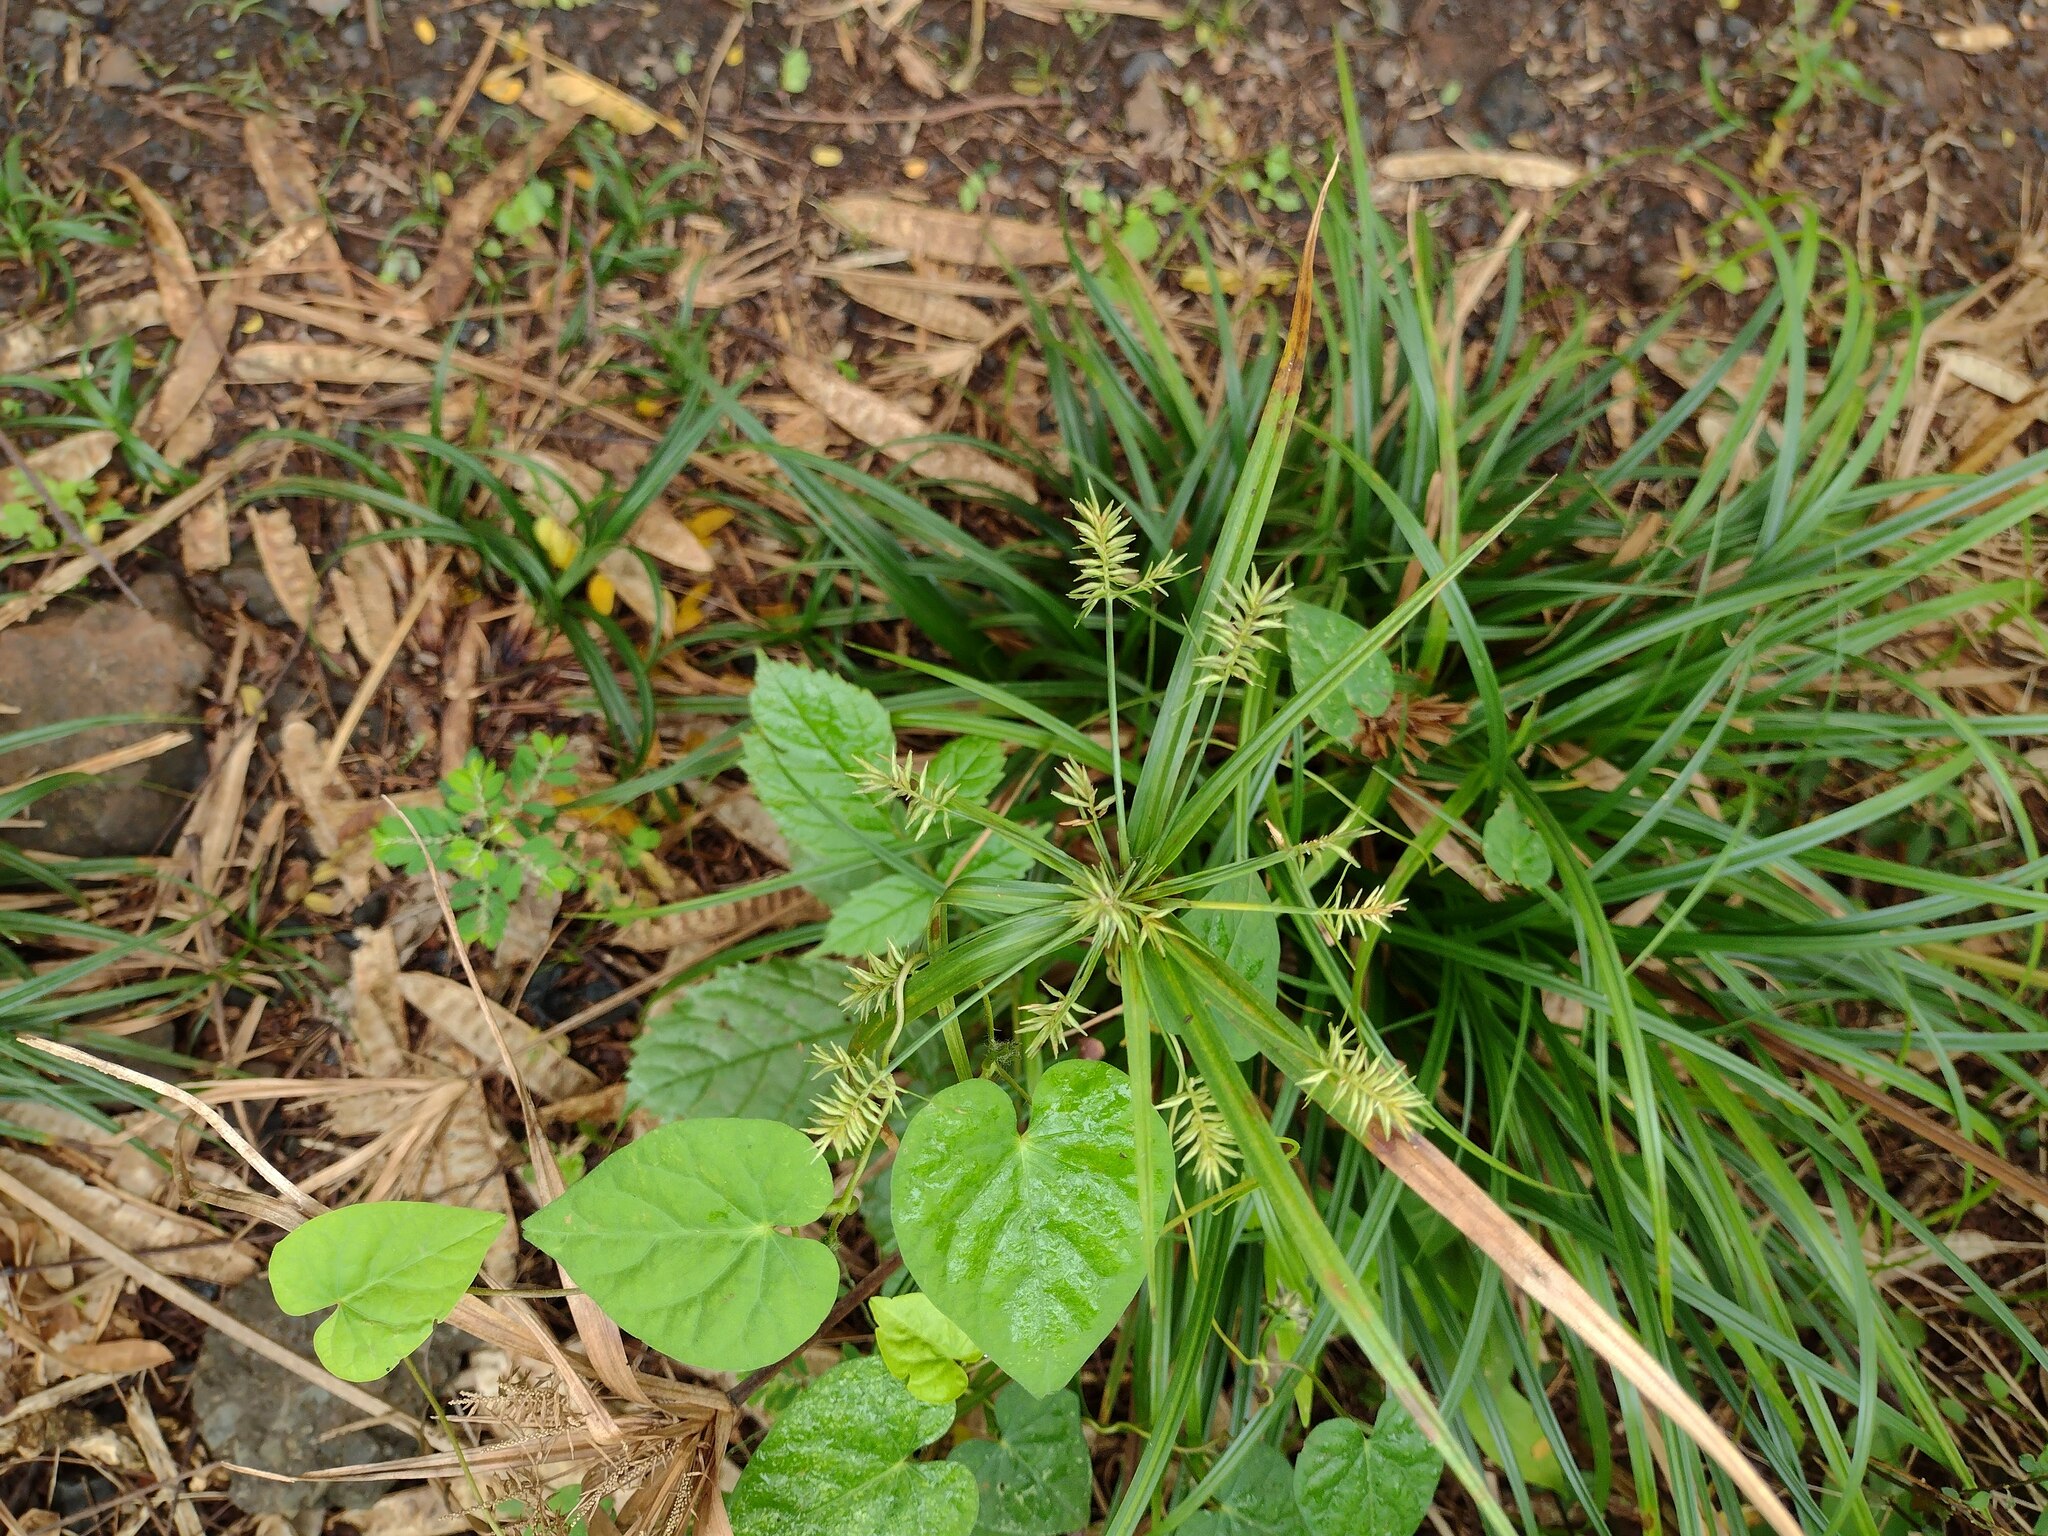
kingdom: Plantae
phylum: Tracheophyta
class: Liliopsida
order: Poales
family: Cyperaceae
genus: Cyperus
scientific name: Cyperus meyenianus
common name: Meyen's flatsedge
